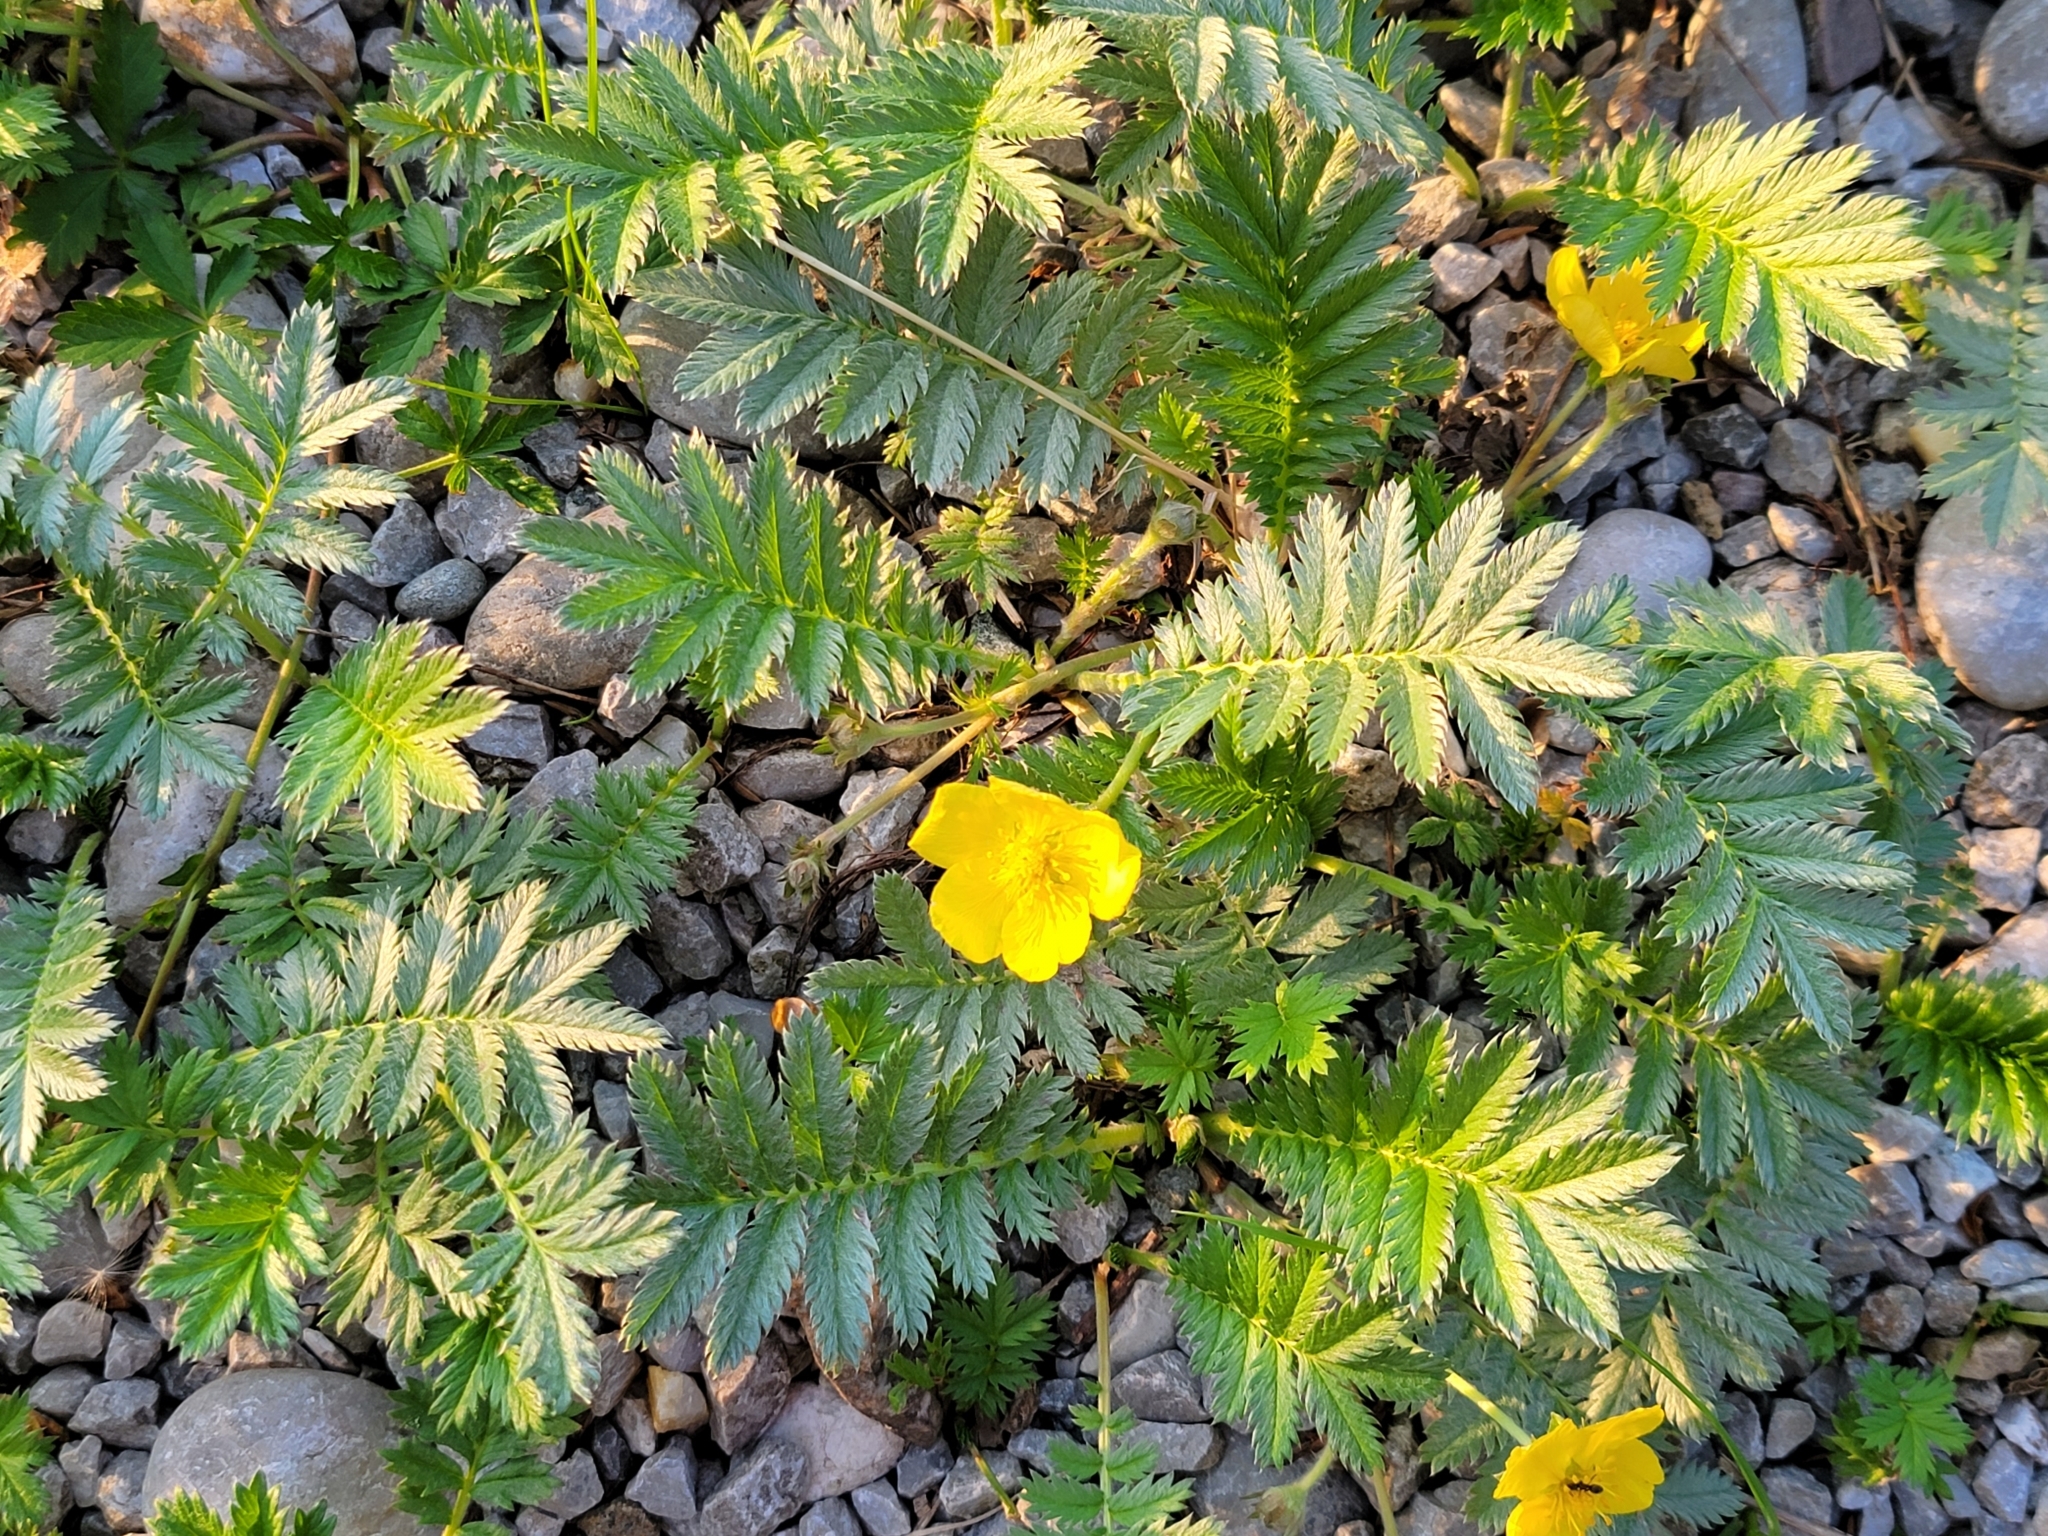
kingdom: Plantae
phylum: Tracheophyta
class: Magnoliopsida
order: Rosales
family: Rosaceae
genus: Argentina
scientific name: Argentina anserina
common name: Common silverweed
